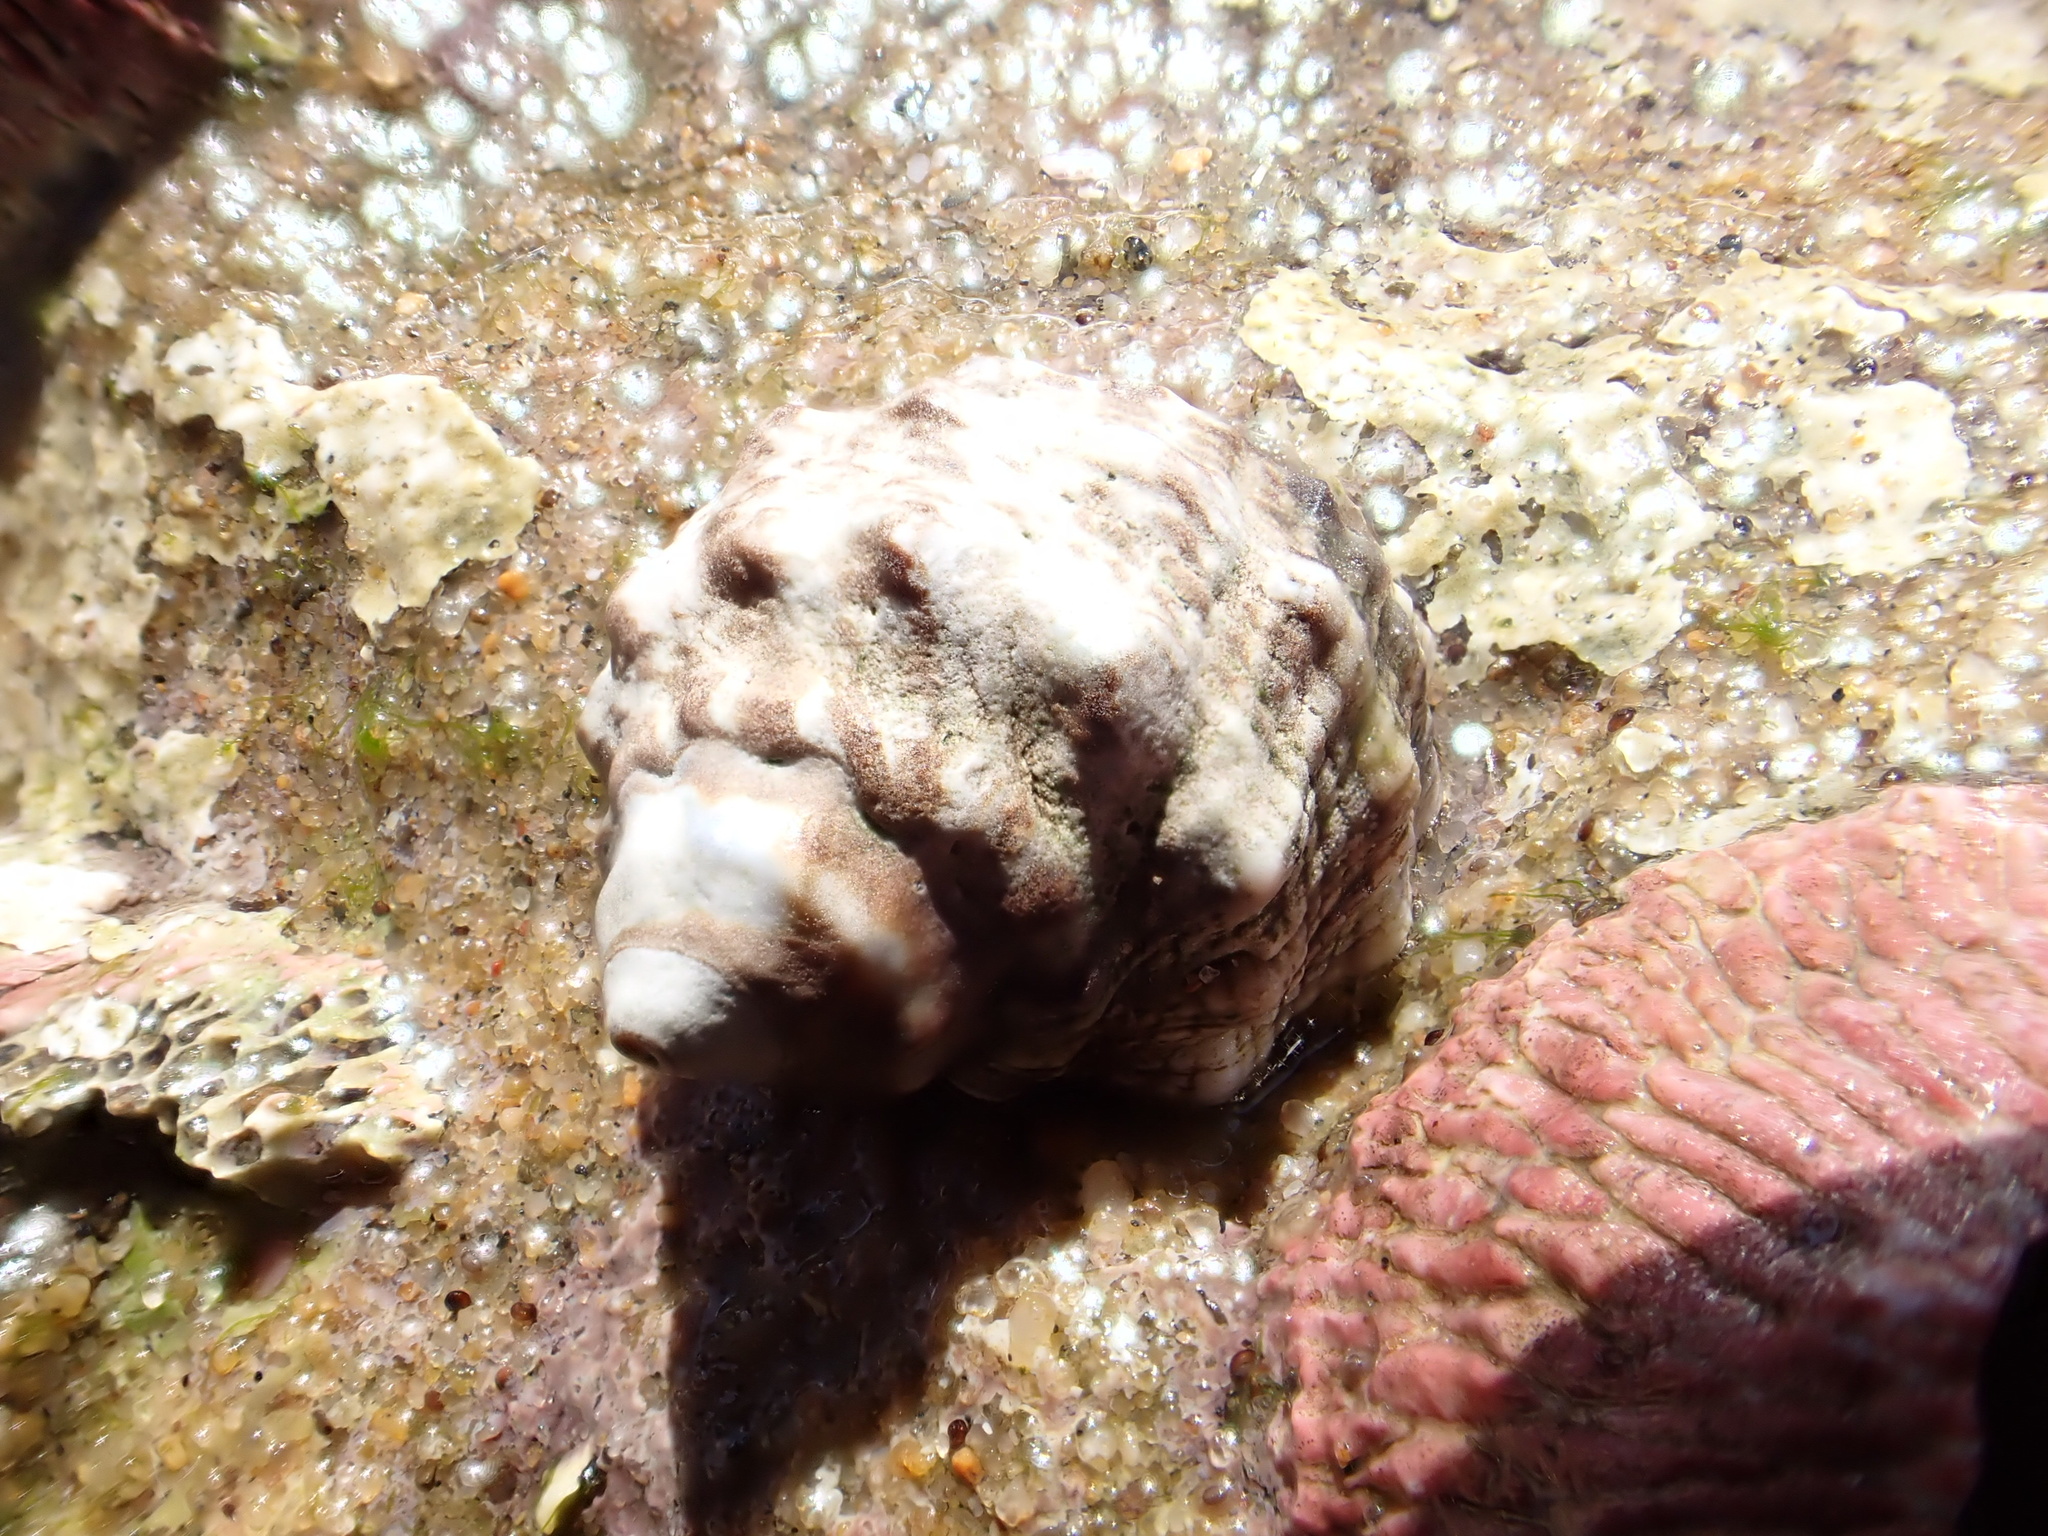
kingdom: Animalia
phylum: Mollusca
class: Gastropoda
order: Neogastropoda
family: Muricidae
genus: Tenguella
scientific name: Tenguella granulata
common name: Granular drupe
